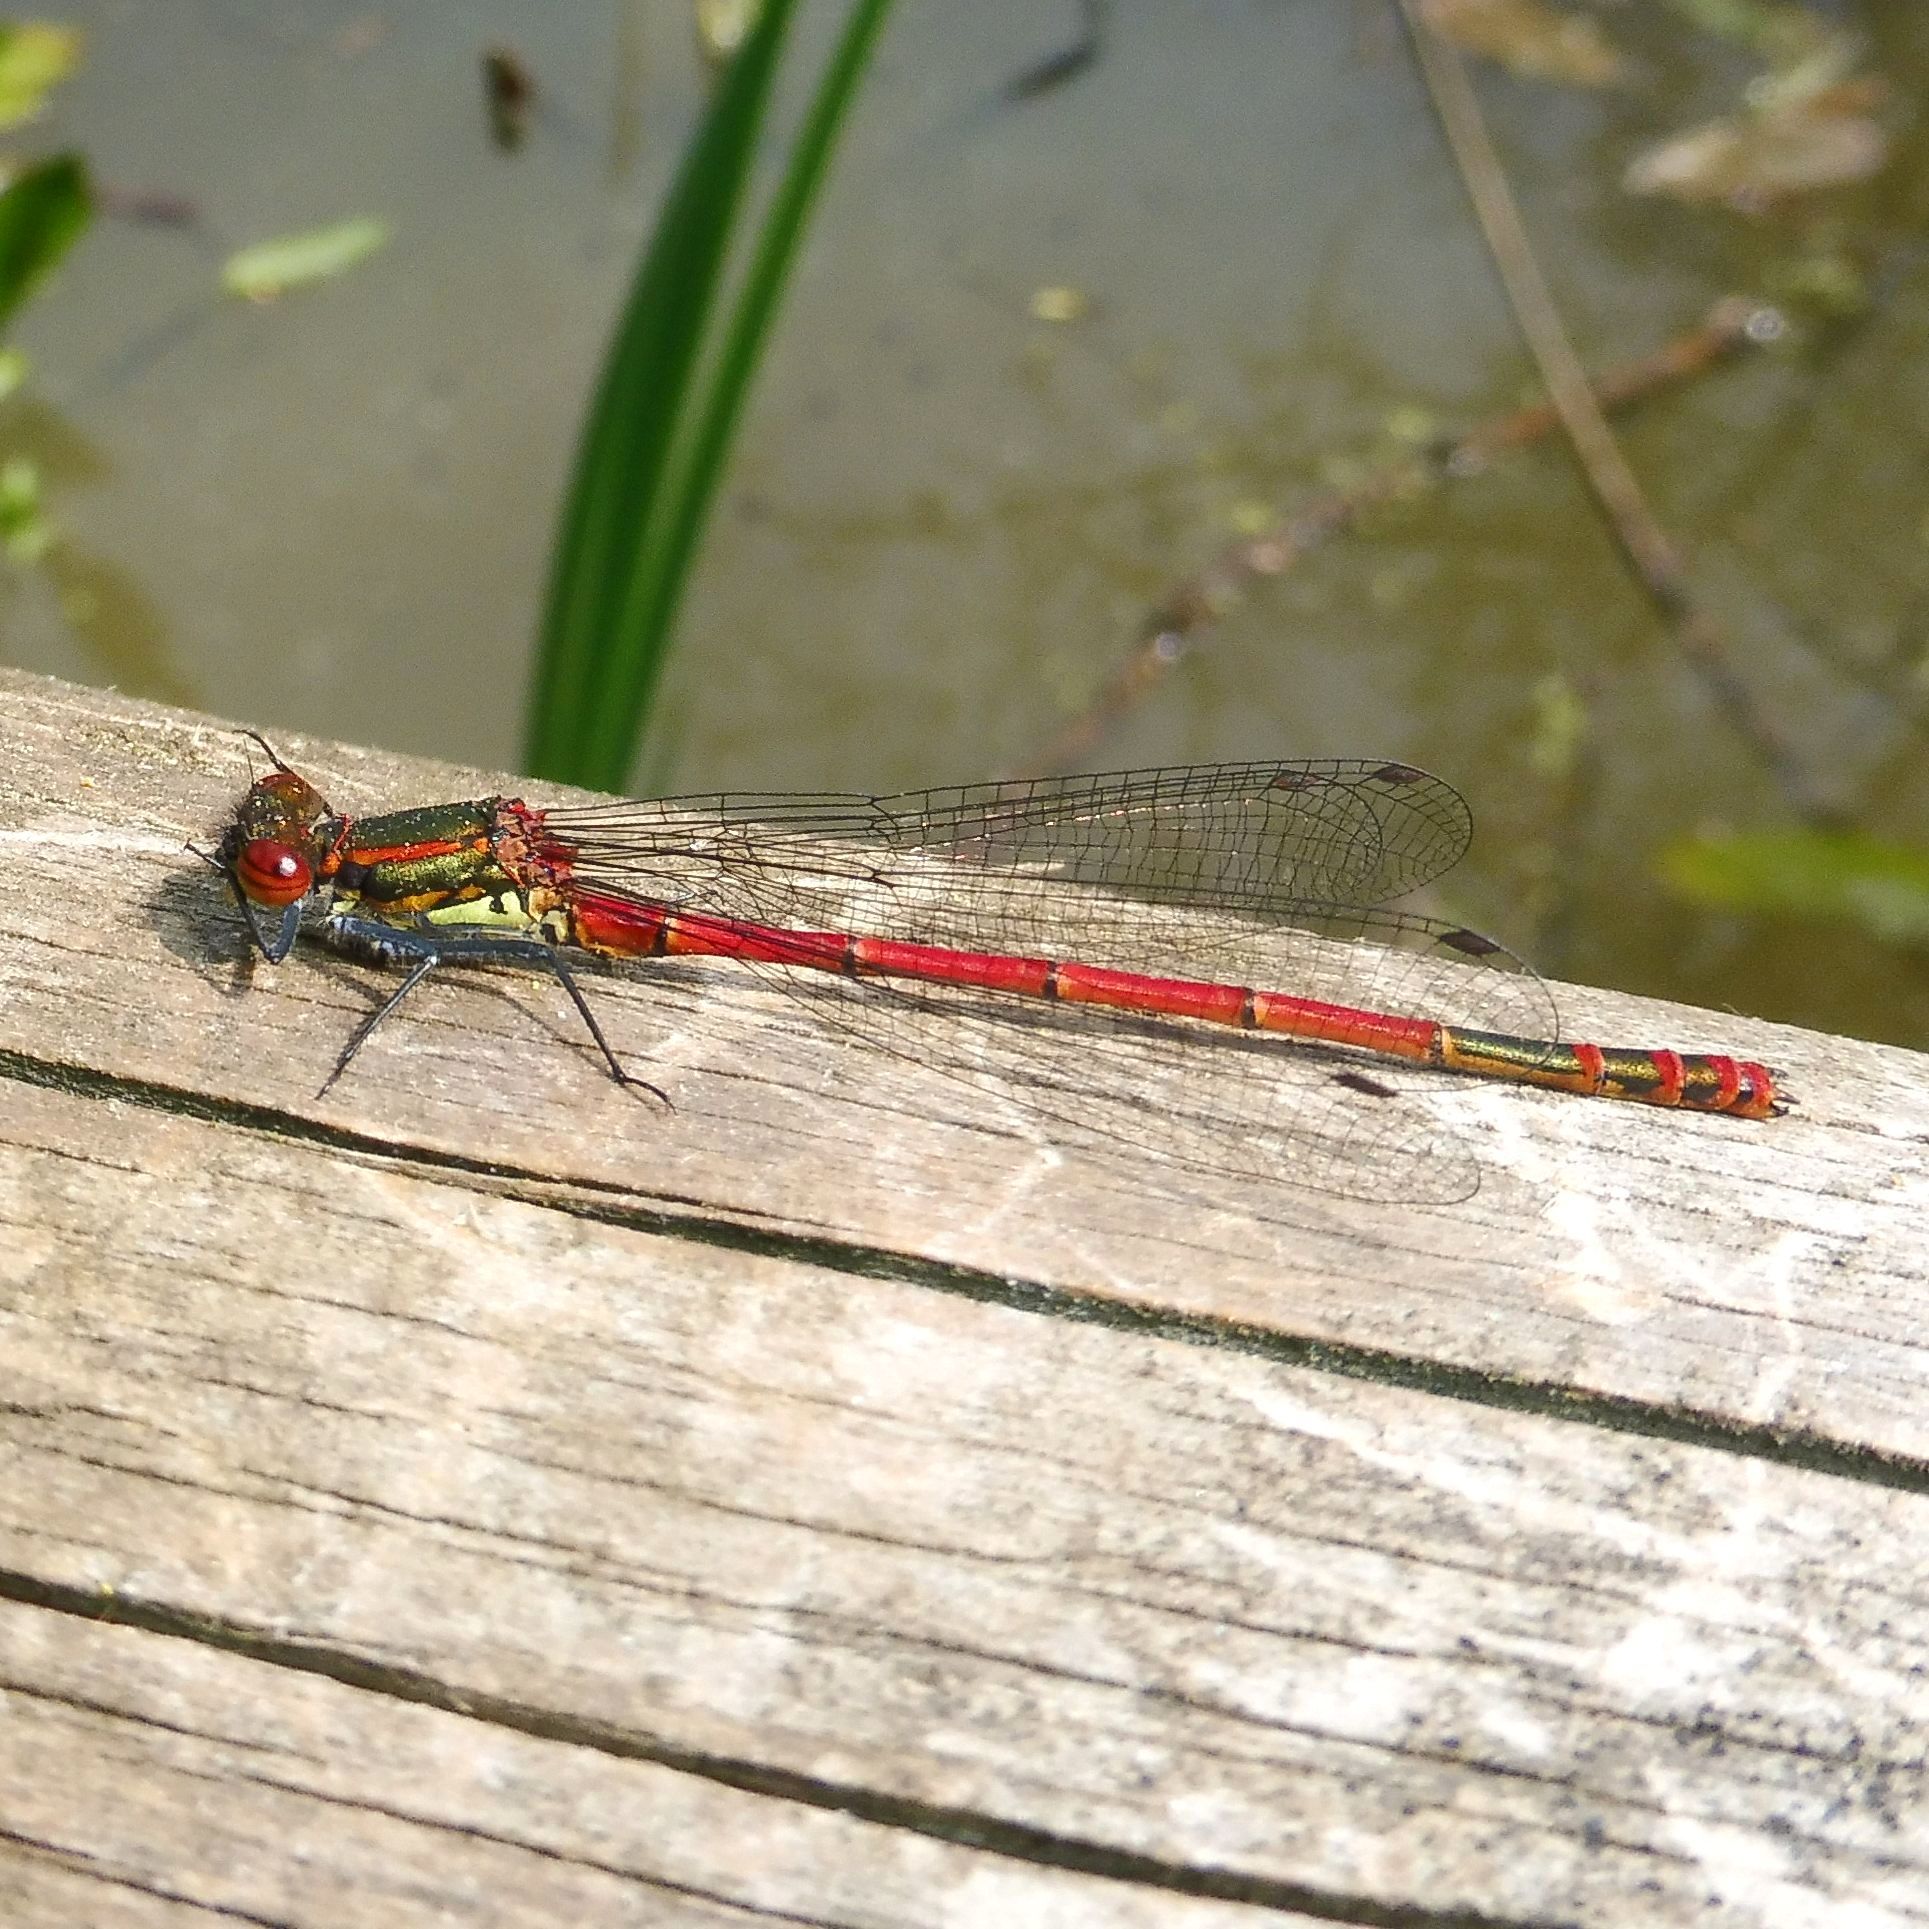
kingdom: Animalia
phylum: Arthropoda
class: Insecta
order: Odonata
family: Coenagrionidae
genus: Pyrrhosoma
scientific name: Pyrrhosoma nymphula
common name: Large red damsel
